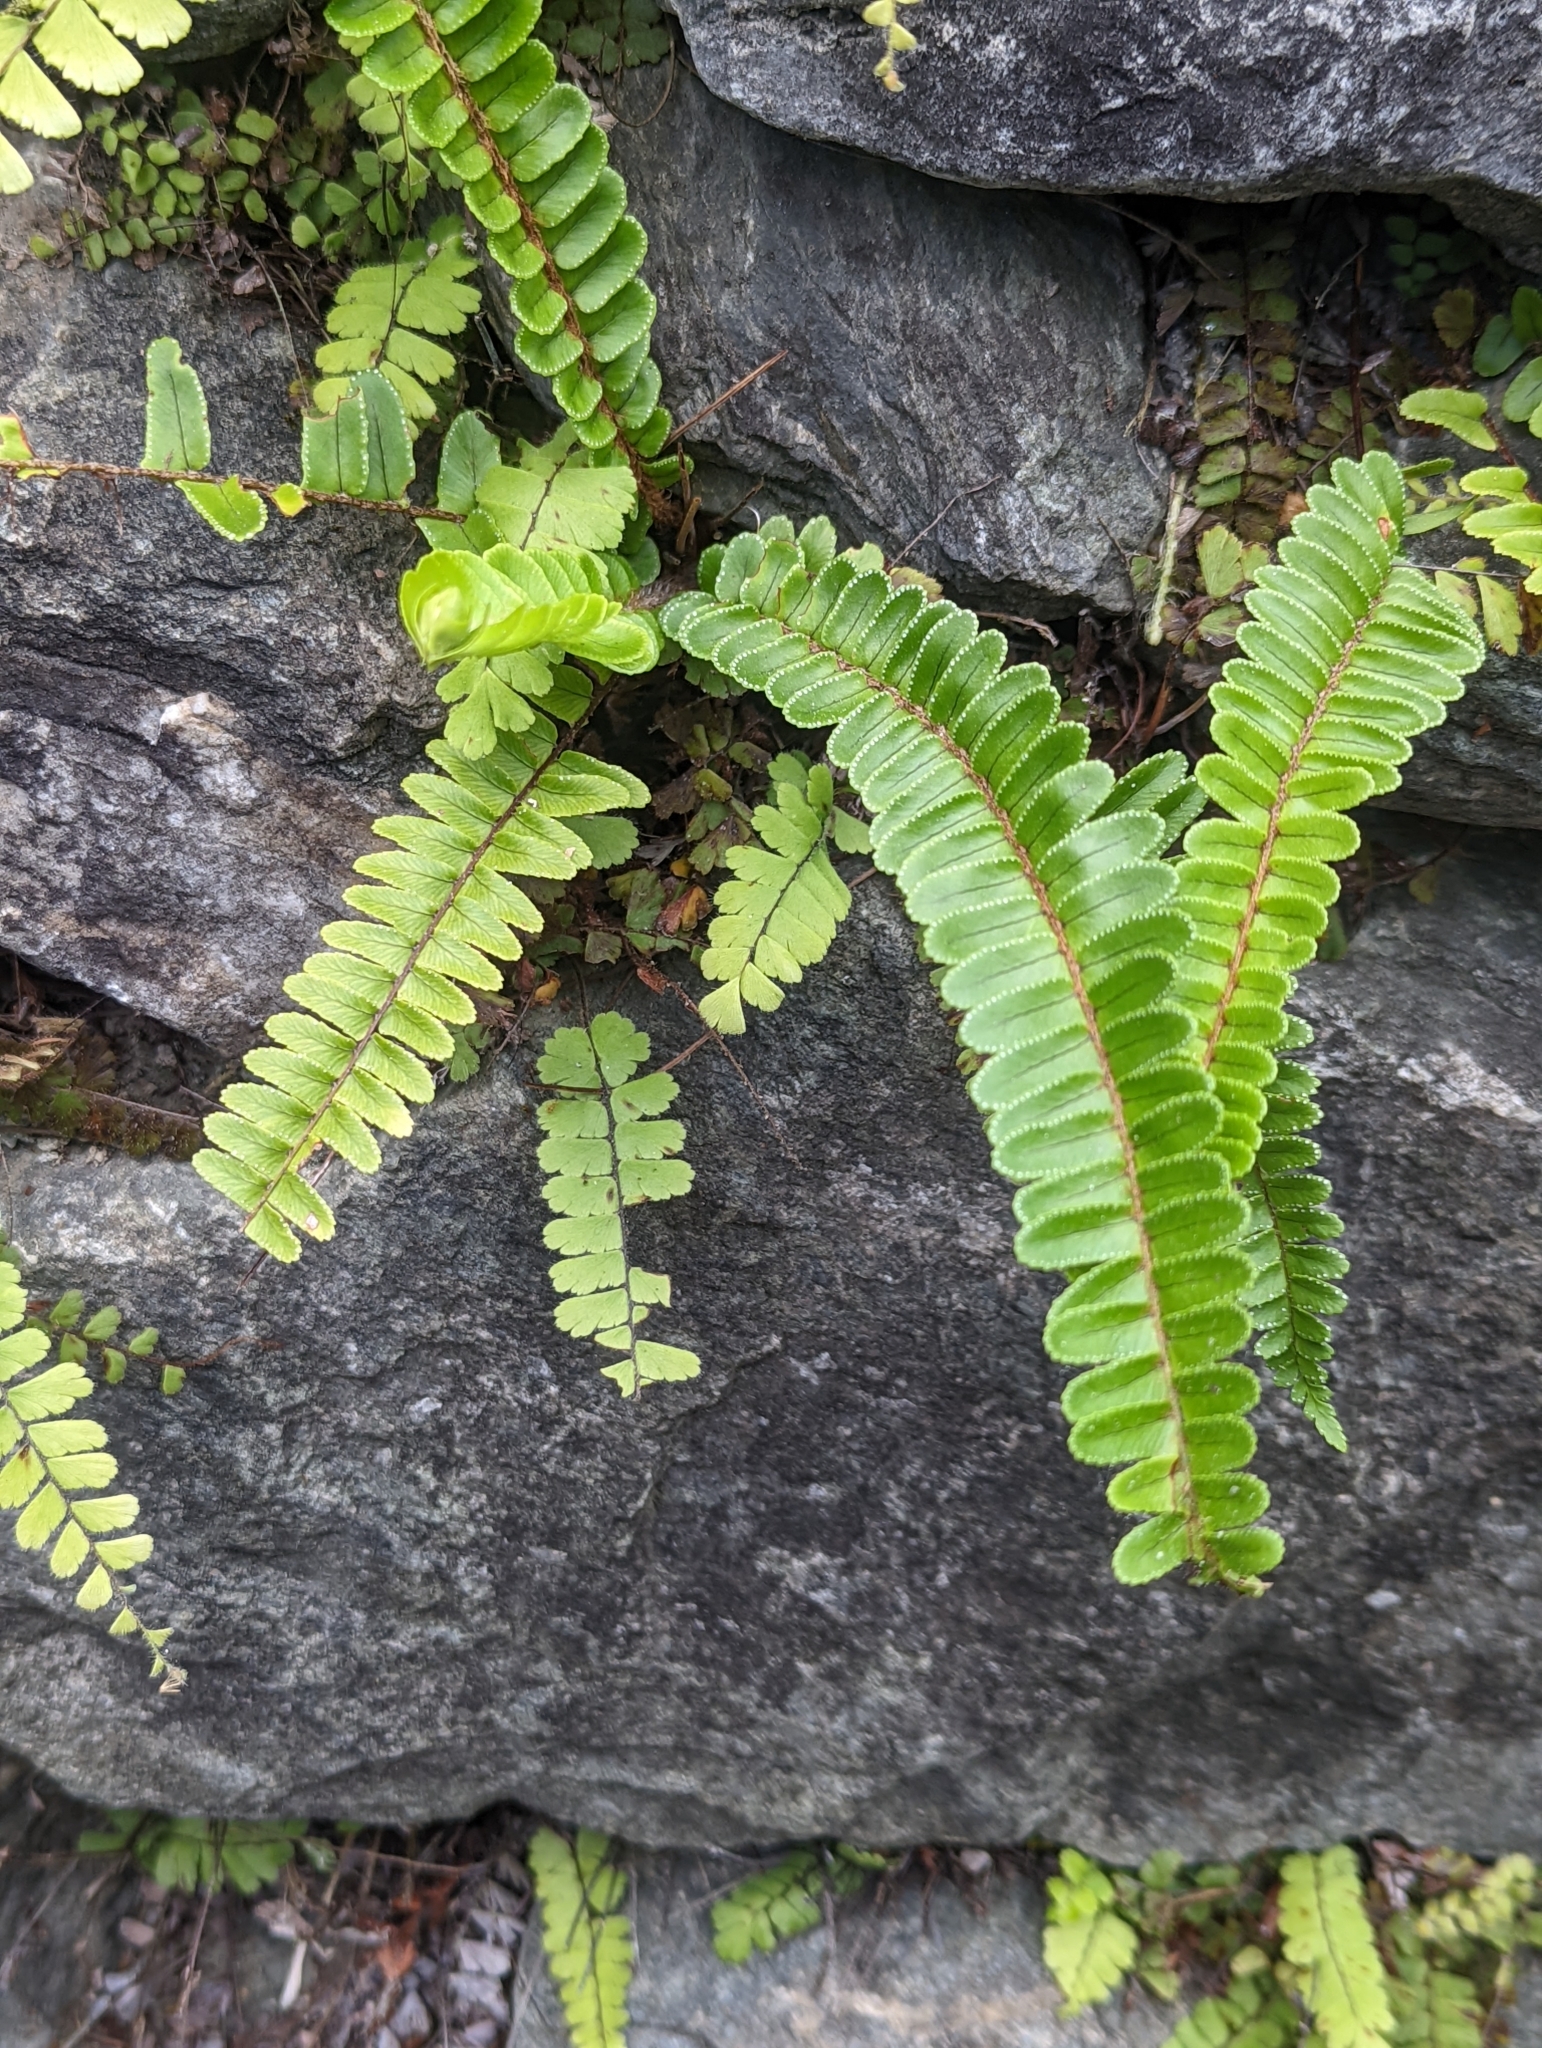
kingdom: Plantae
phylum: Tracheophyta
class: Polypodiopsida
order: Polypodiales
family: Nephrolepidaceae
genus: Nephrolepis
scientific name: Nephrolepis cordifolia
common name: Narrow swordfern
